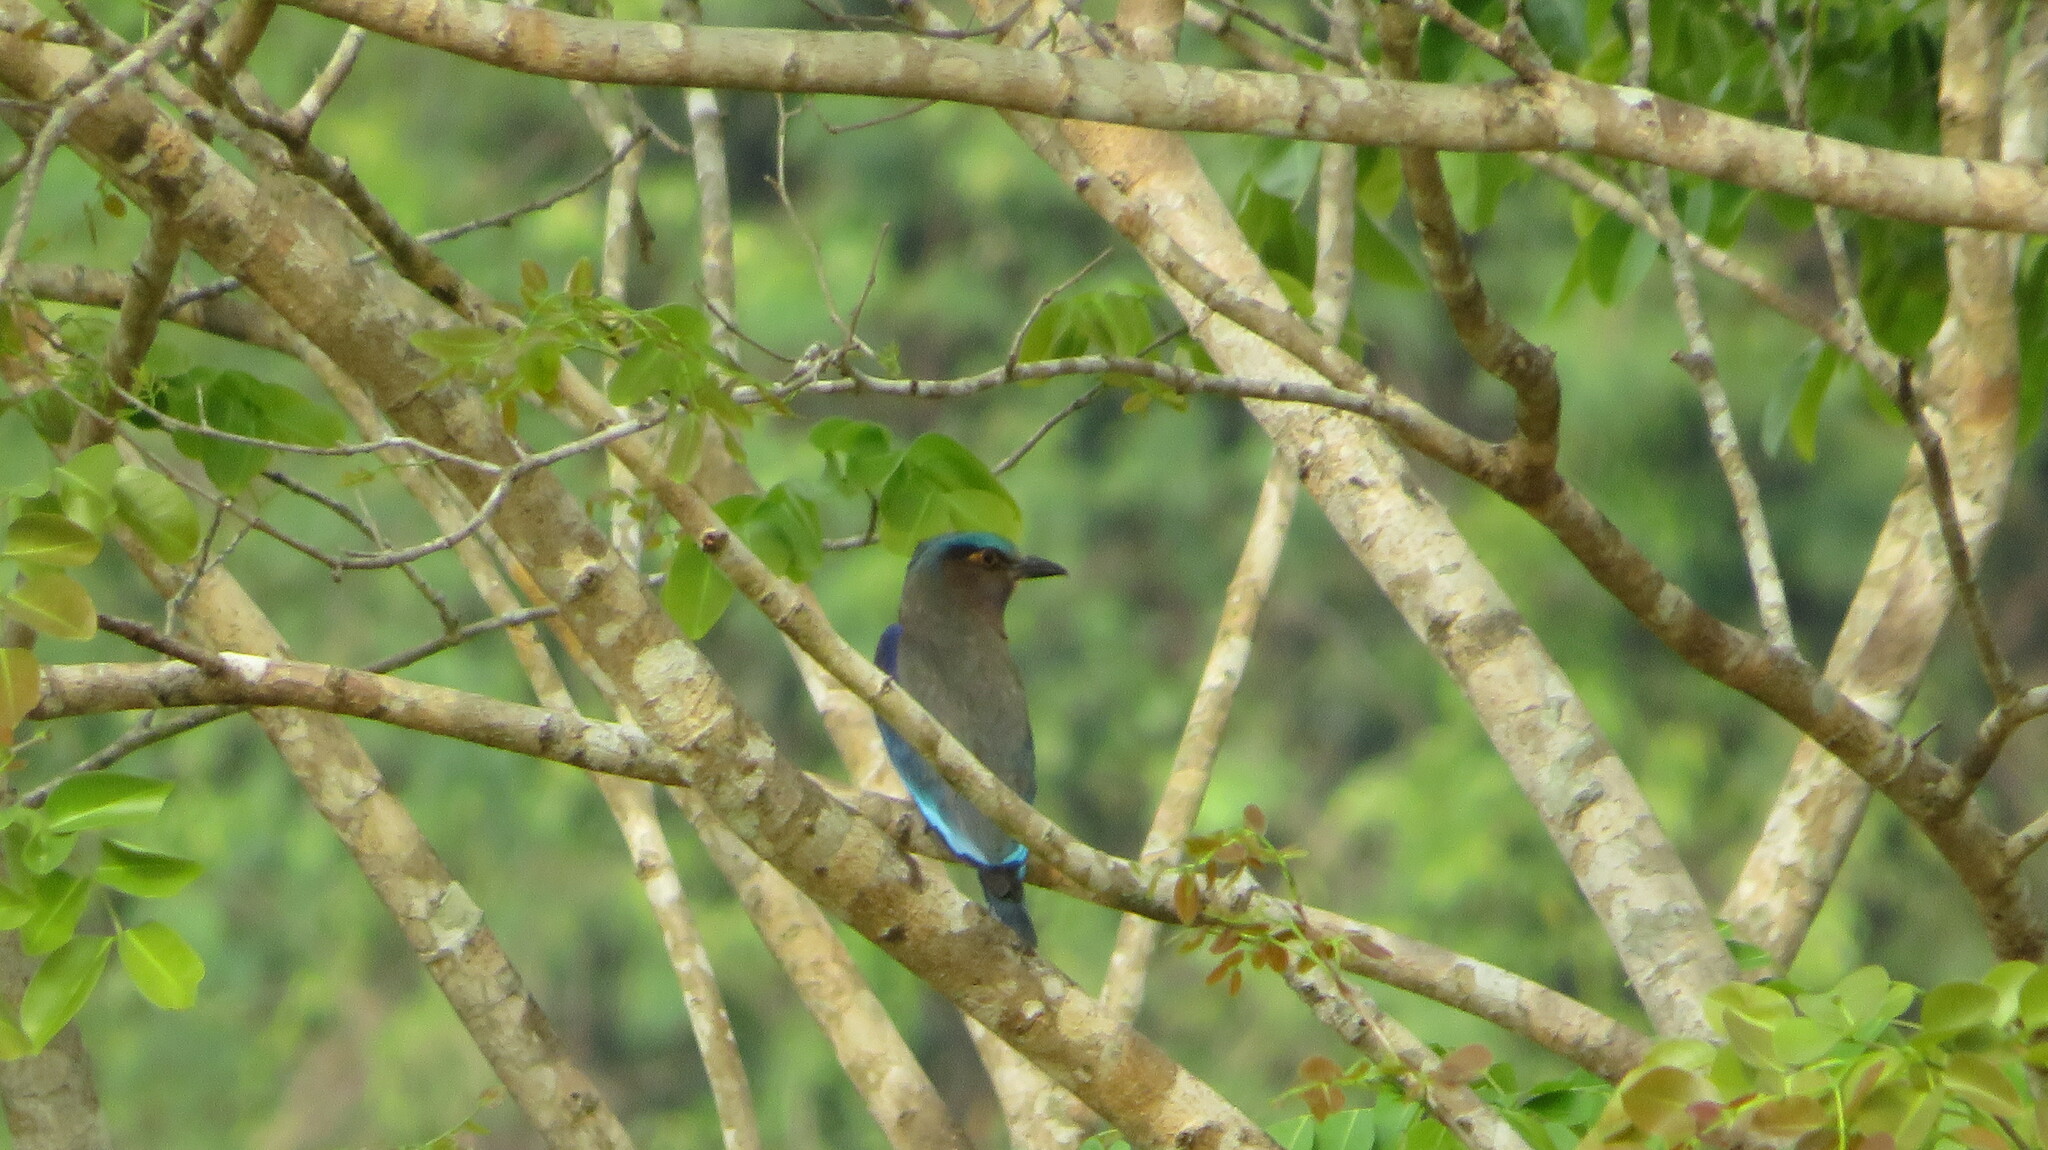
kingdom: Animalia
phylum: Chordata
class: Aves
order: Coraciiformes
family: Coraciidae
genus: Coracias
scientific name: Coracias affinis
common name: Indochinese roller
